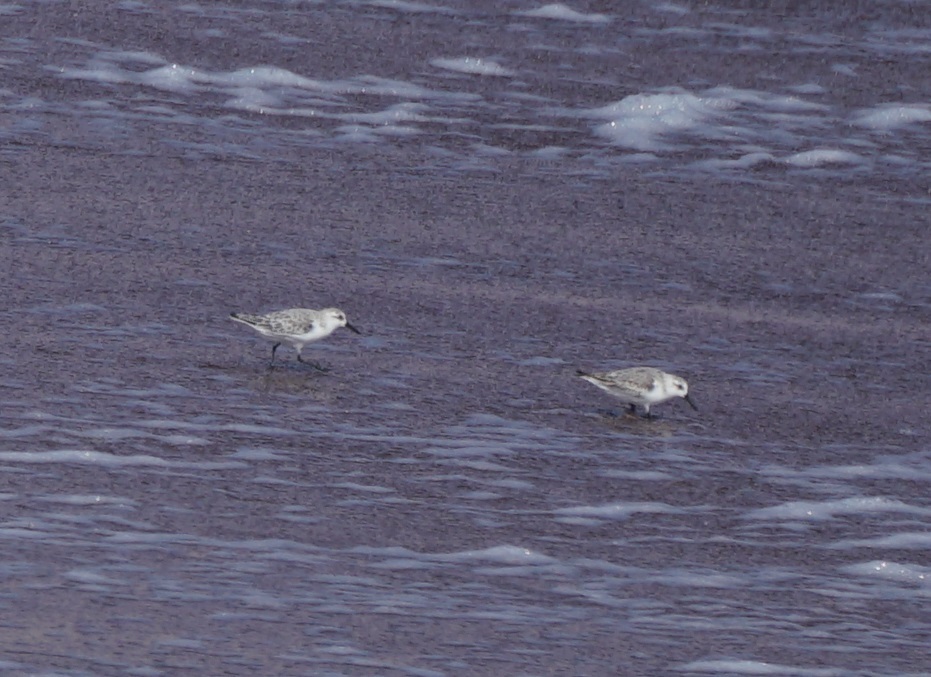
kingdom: Animalia
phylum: Chordata
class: Aves
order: Charadriiformes
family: Scolopacidae
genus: Calidris
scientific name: Calidris alba
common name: Sanderling
